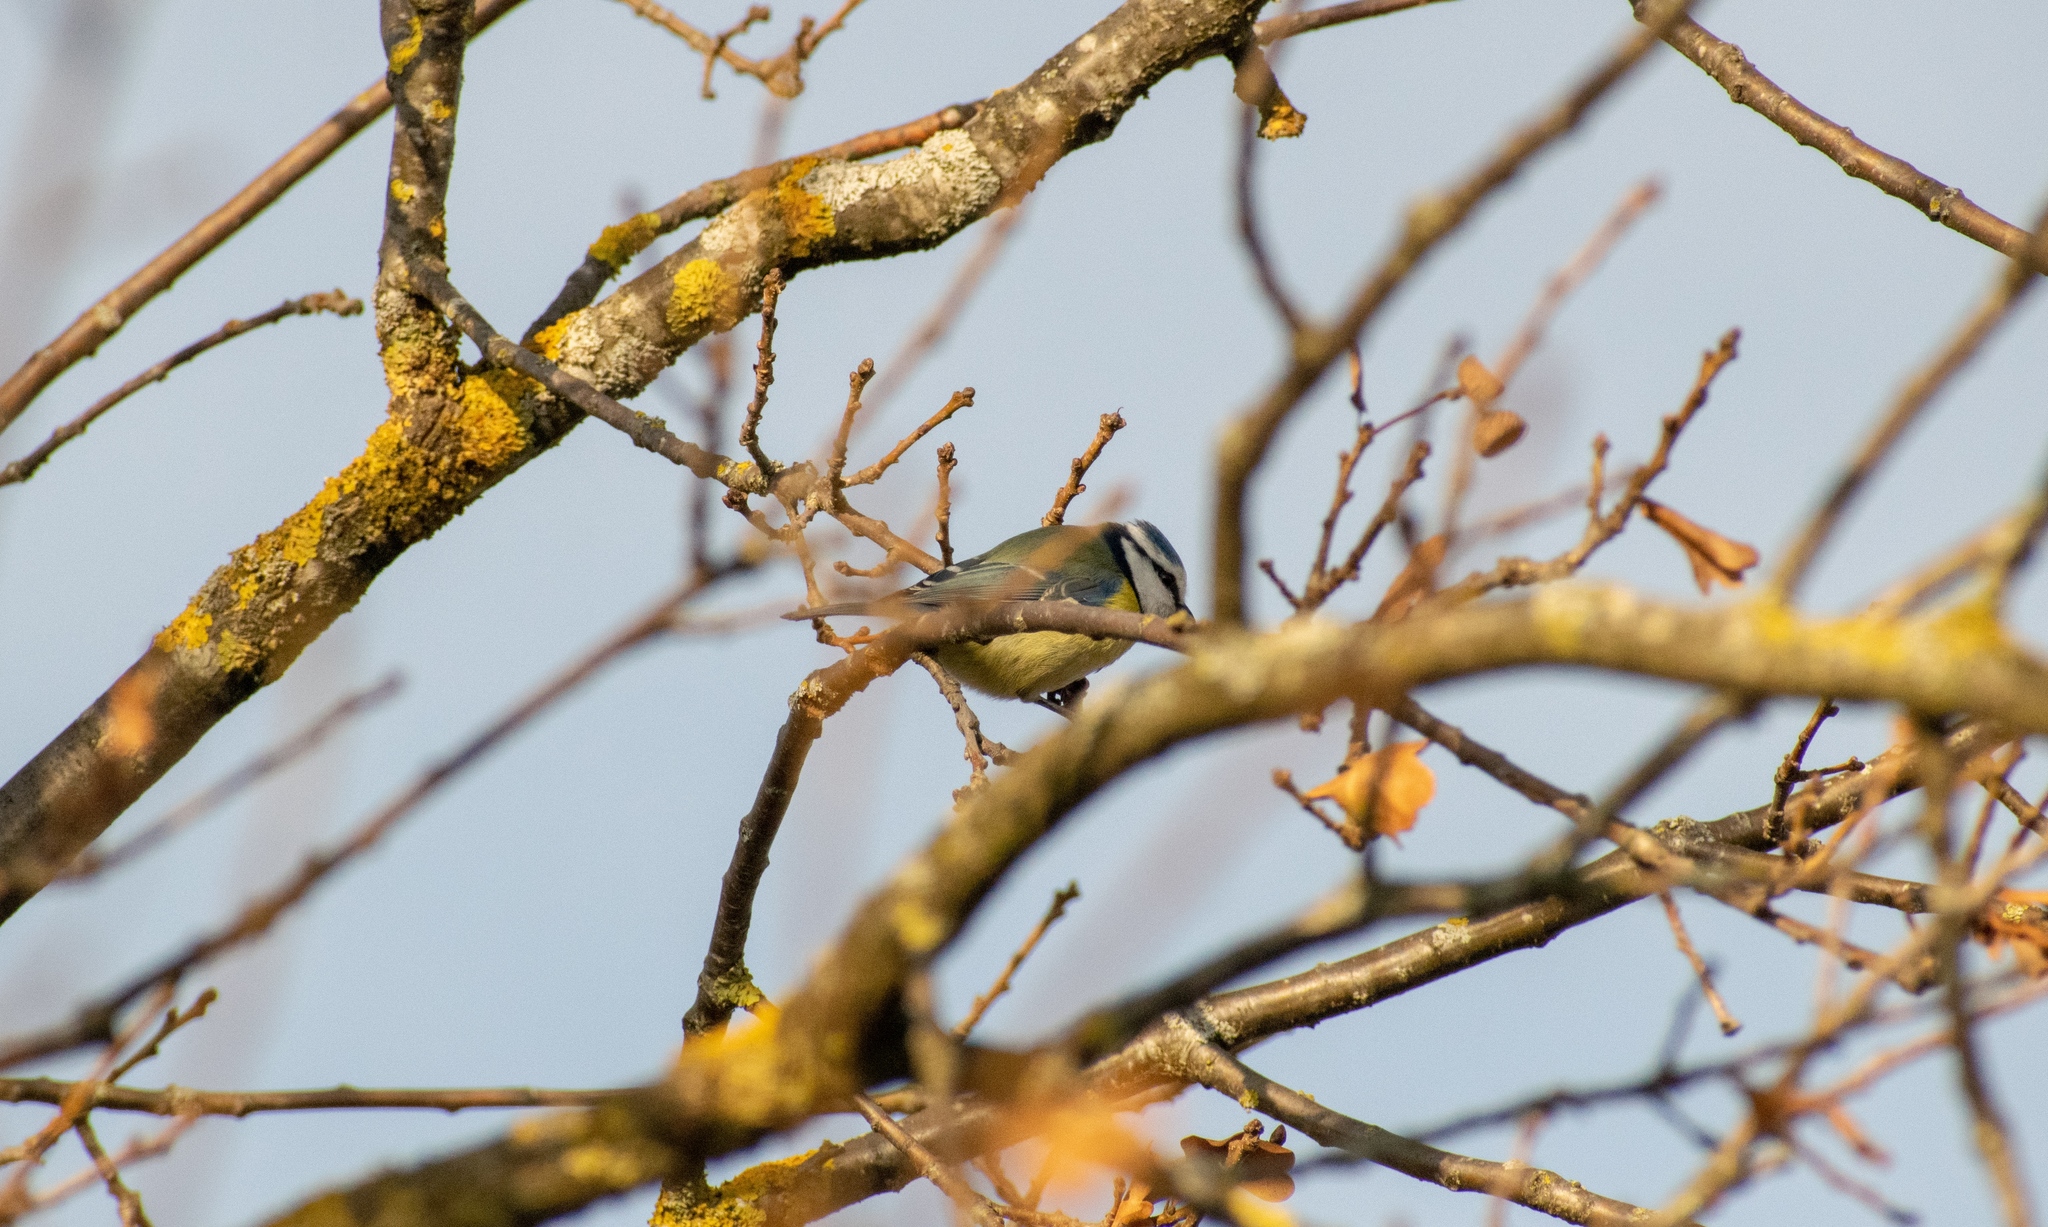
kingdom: Animalia
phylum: Chordata
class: Aves
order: Passeriformes
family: Paridae
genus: Cyanistes
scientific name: Cyanistes caeruleus
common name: Eurasian blue tit
